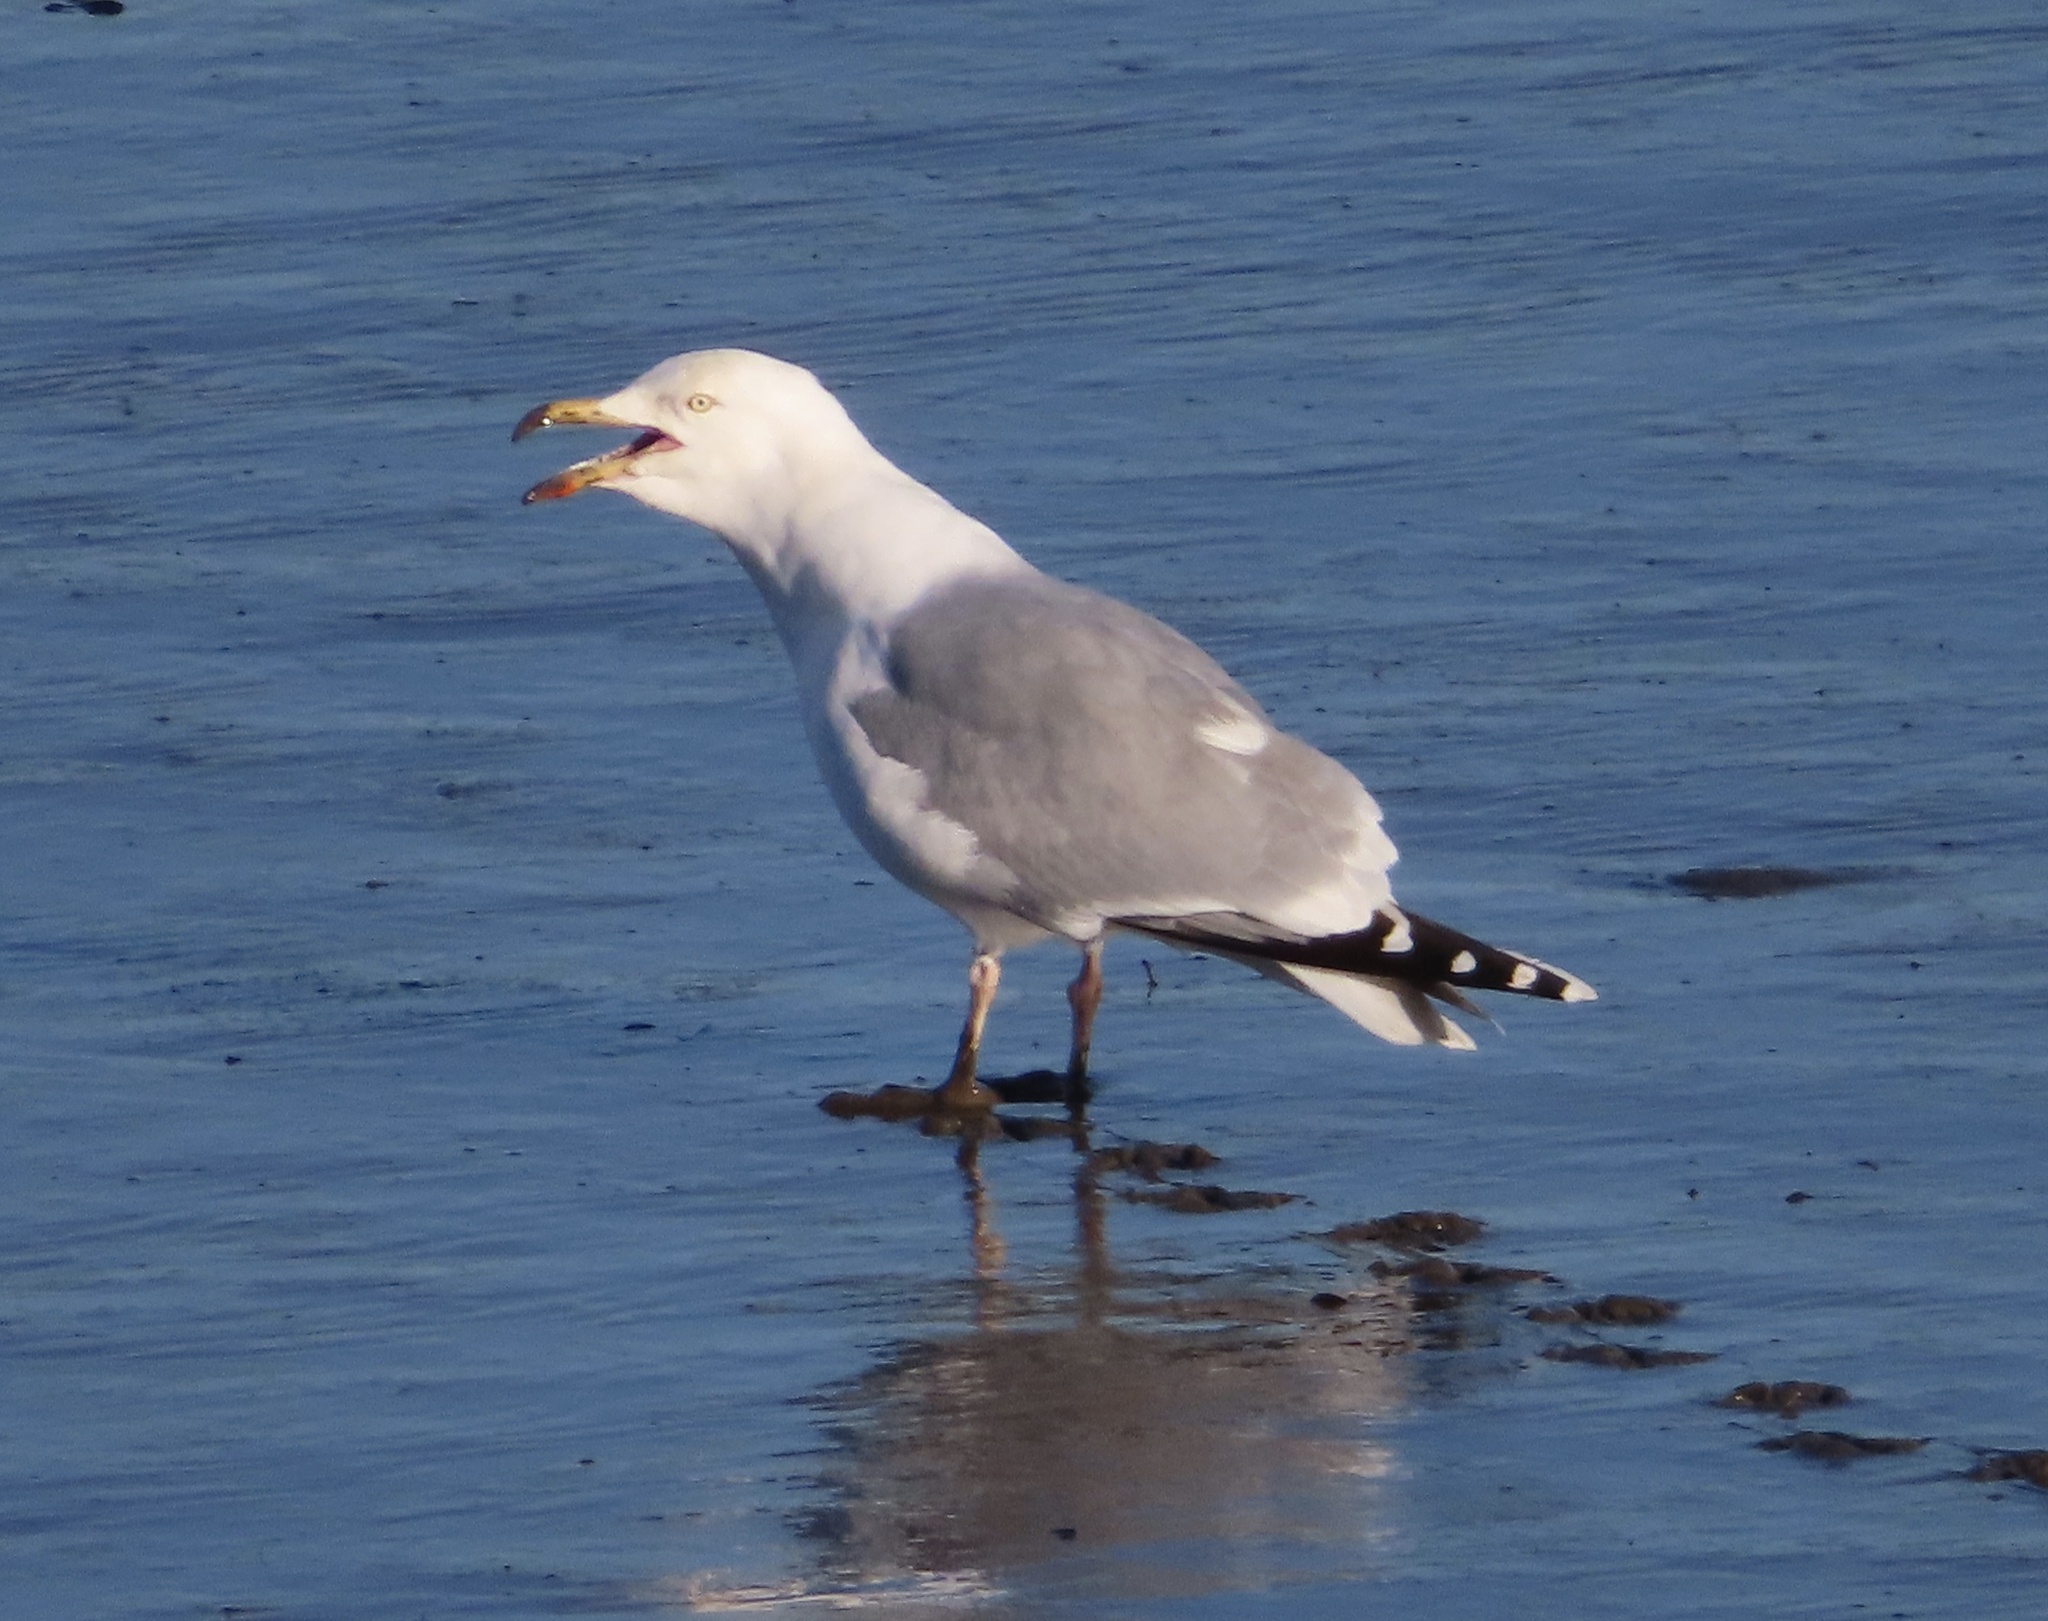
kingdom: Animalia
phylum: Chordata
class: Aves
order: Charadriiformes
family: Laridae
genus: Larus
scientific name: Larus argentatus
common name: Herring gull
